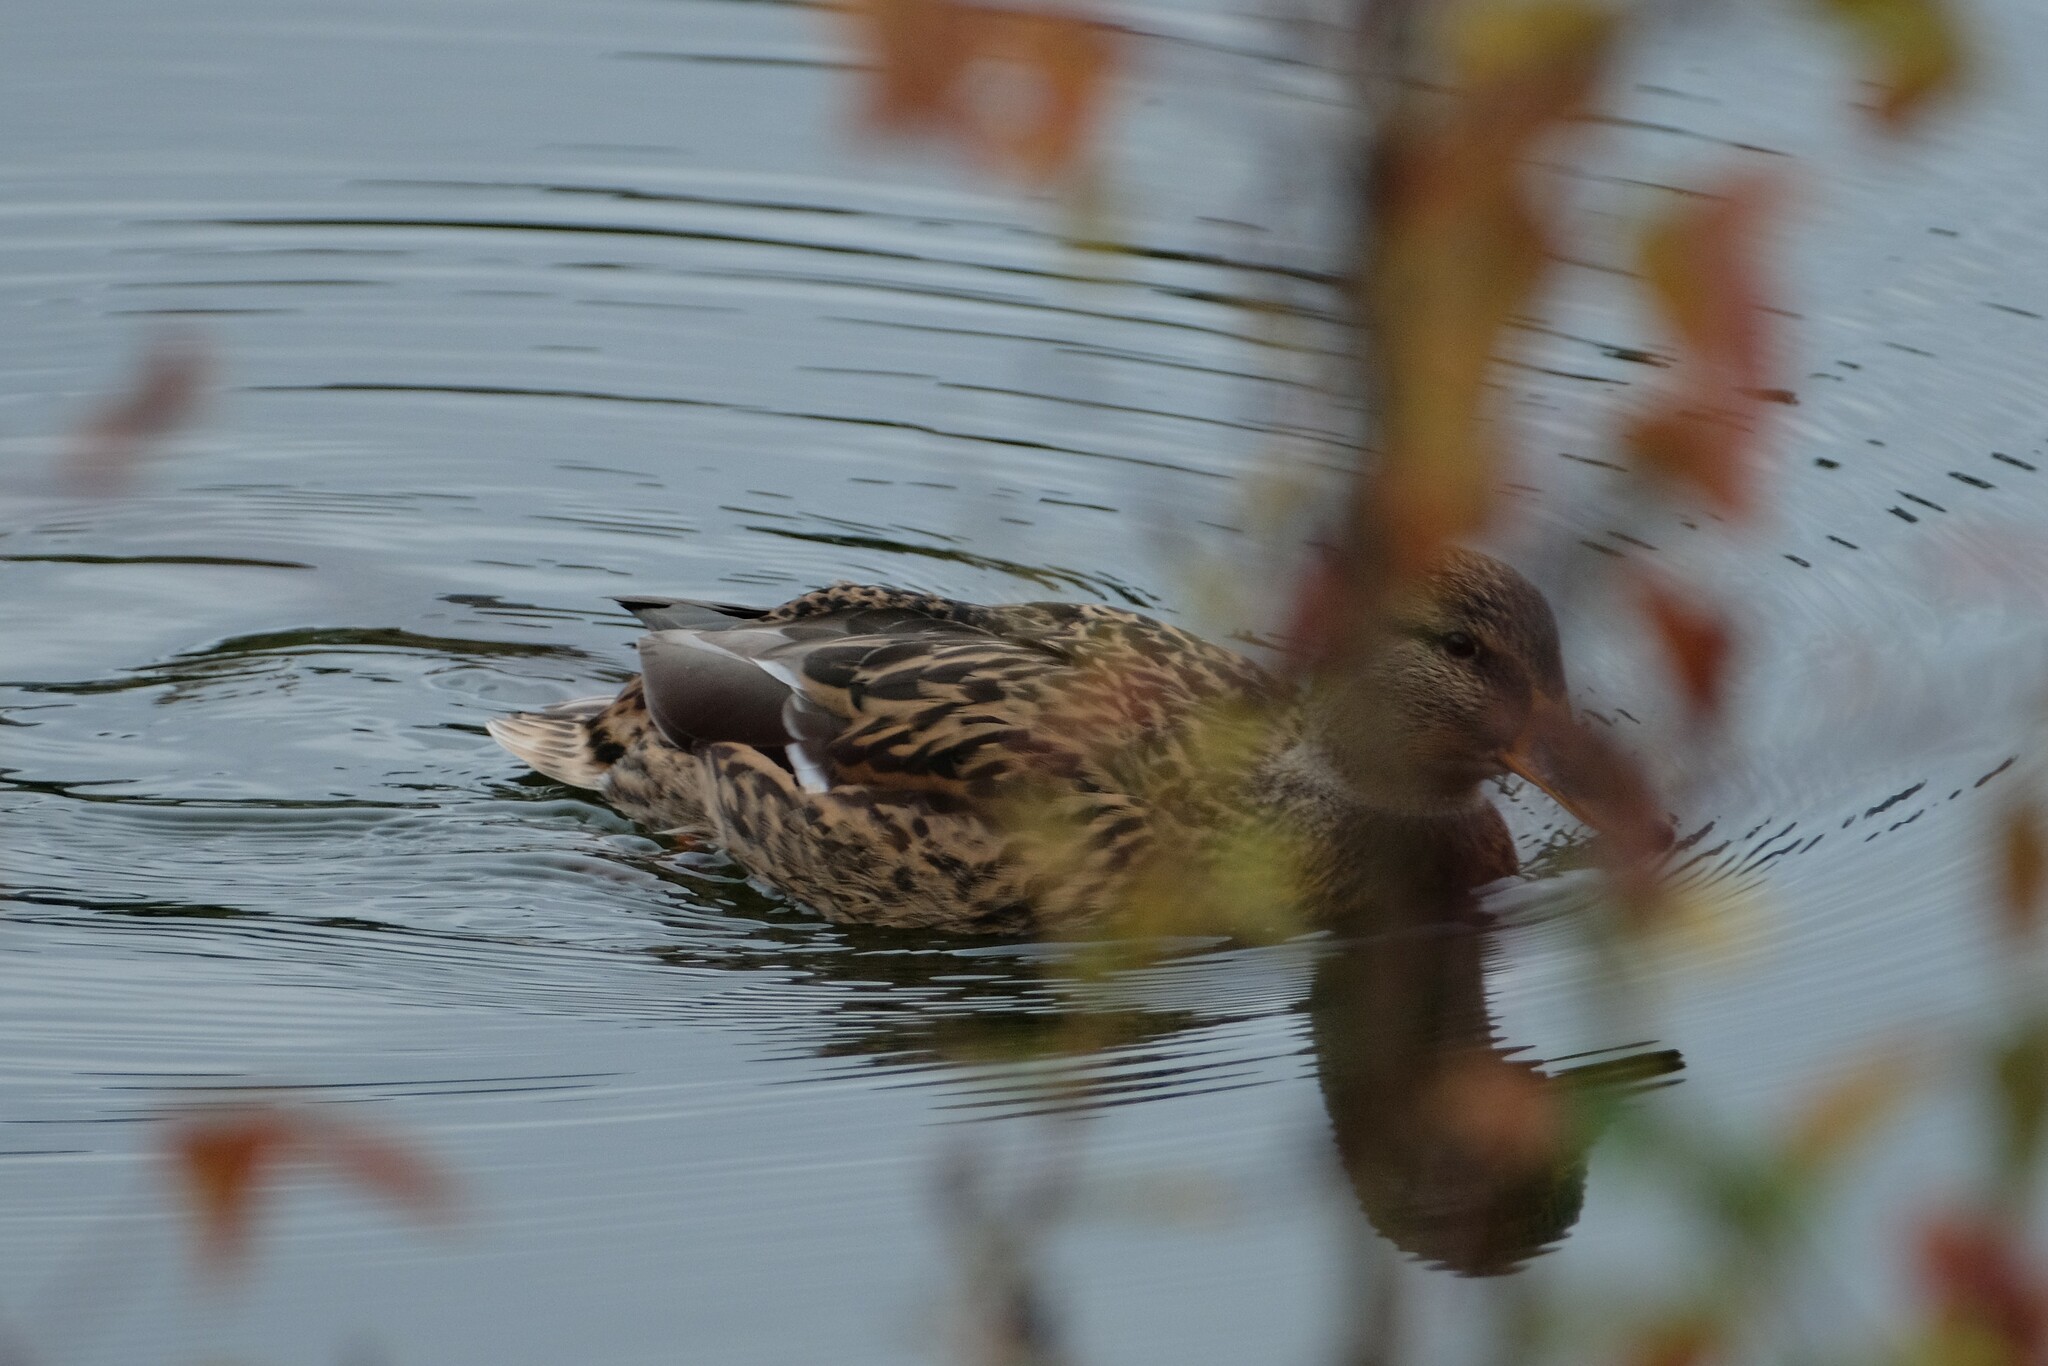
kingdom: Animalia
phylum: Chordata
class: Aves
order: Anseriformes
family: Anatidae
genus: Anas
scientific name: Anas platyrhynchos
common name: Mallard
